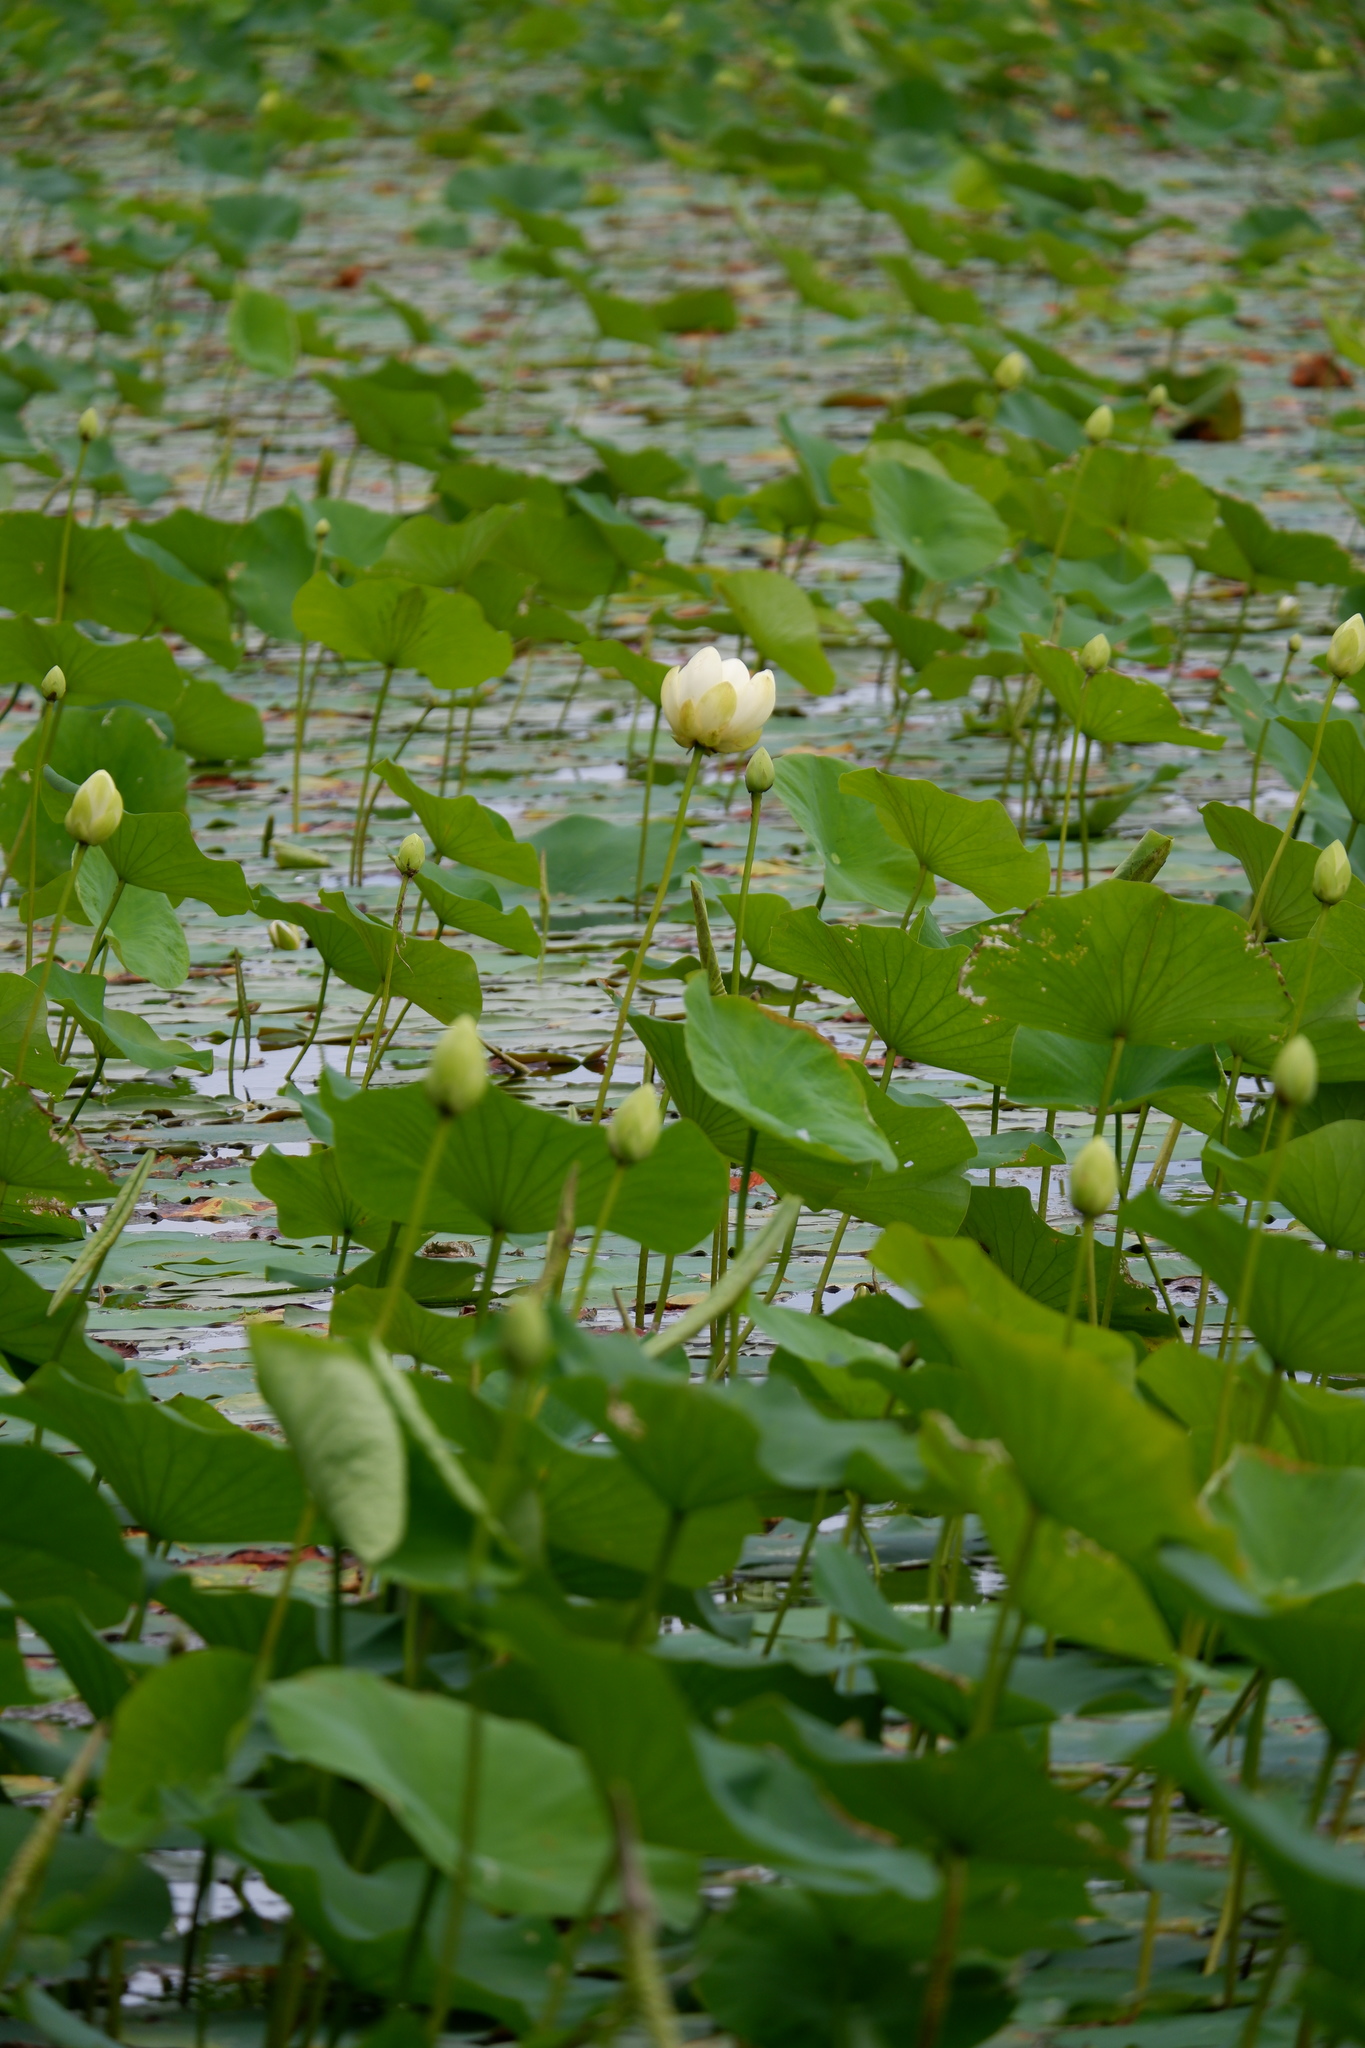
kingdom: Plantae
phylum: Tracheophyta
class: Magnoliopsida
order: Proteales
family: Nelumbonaceae
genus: Nelumbo
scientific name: Nelumbo lutea
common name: American lotus
